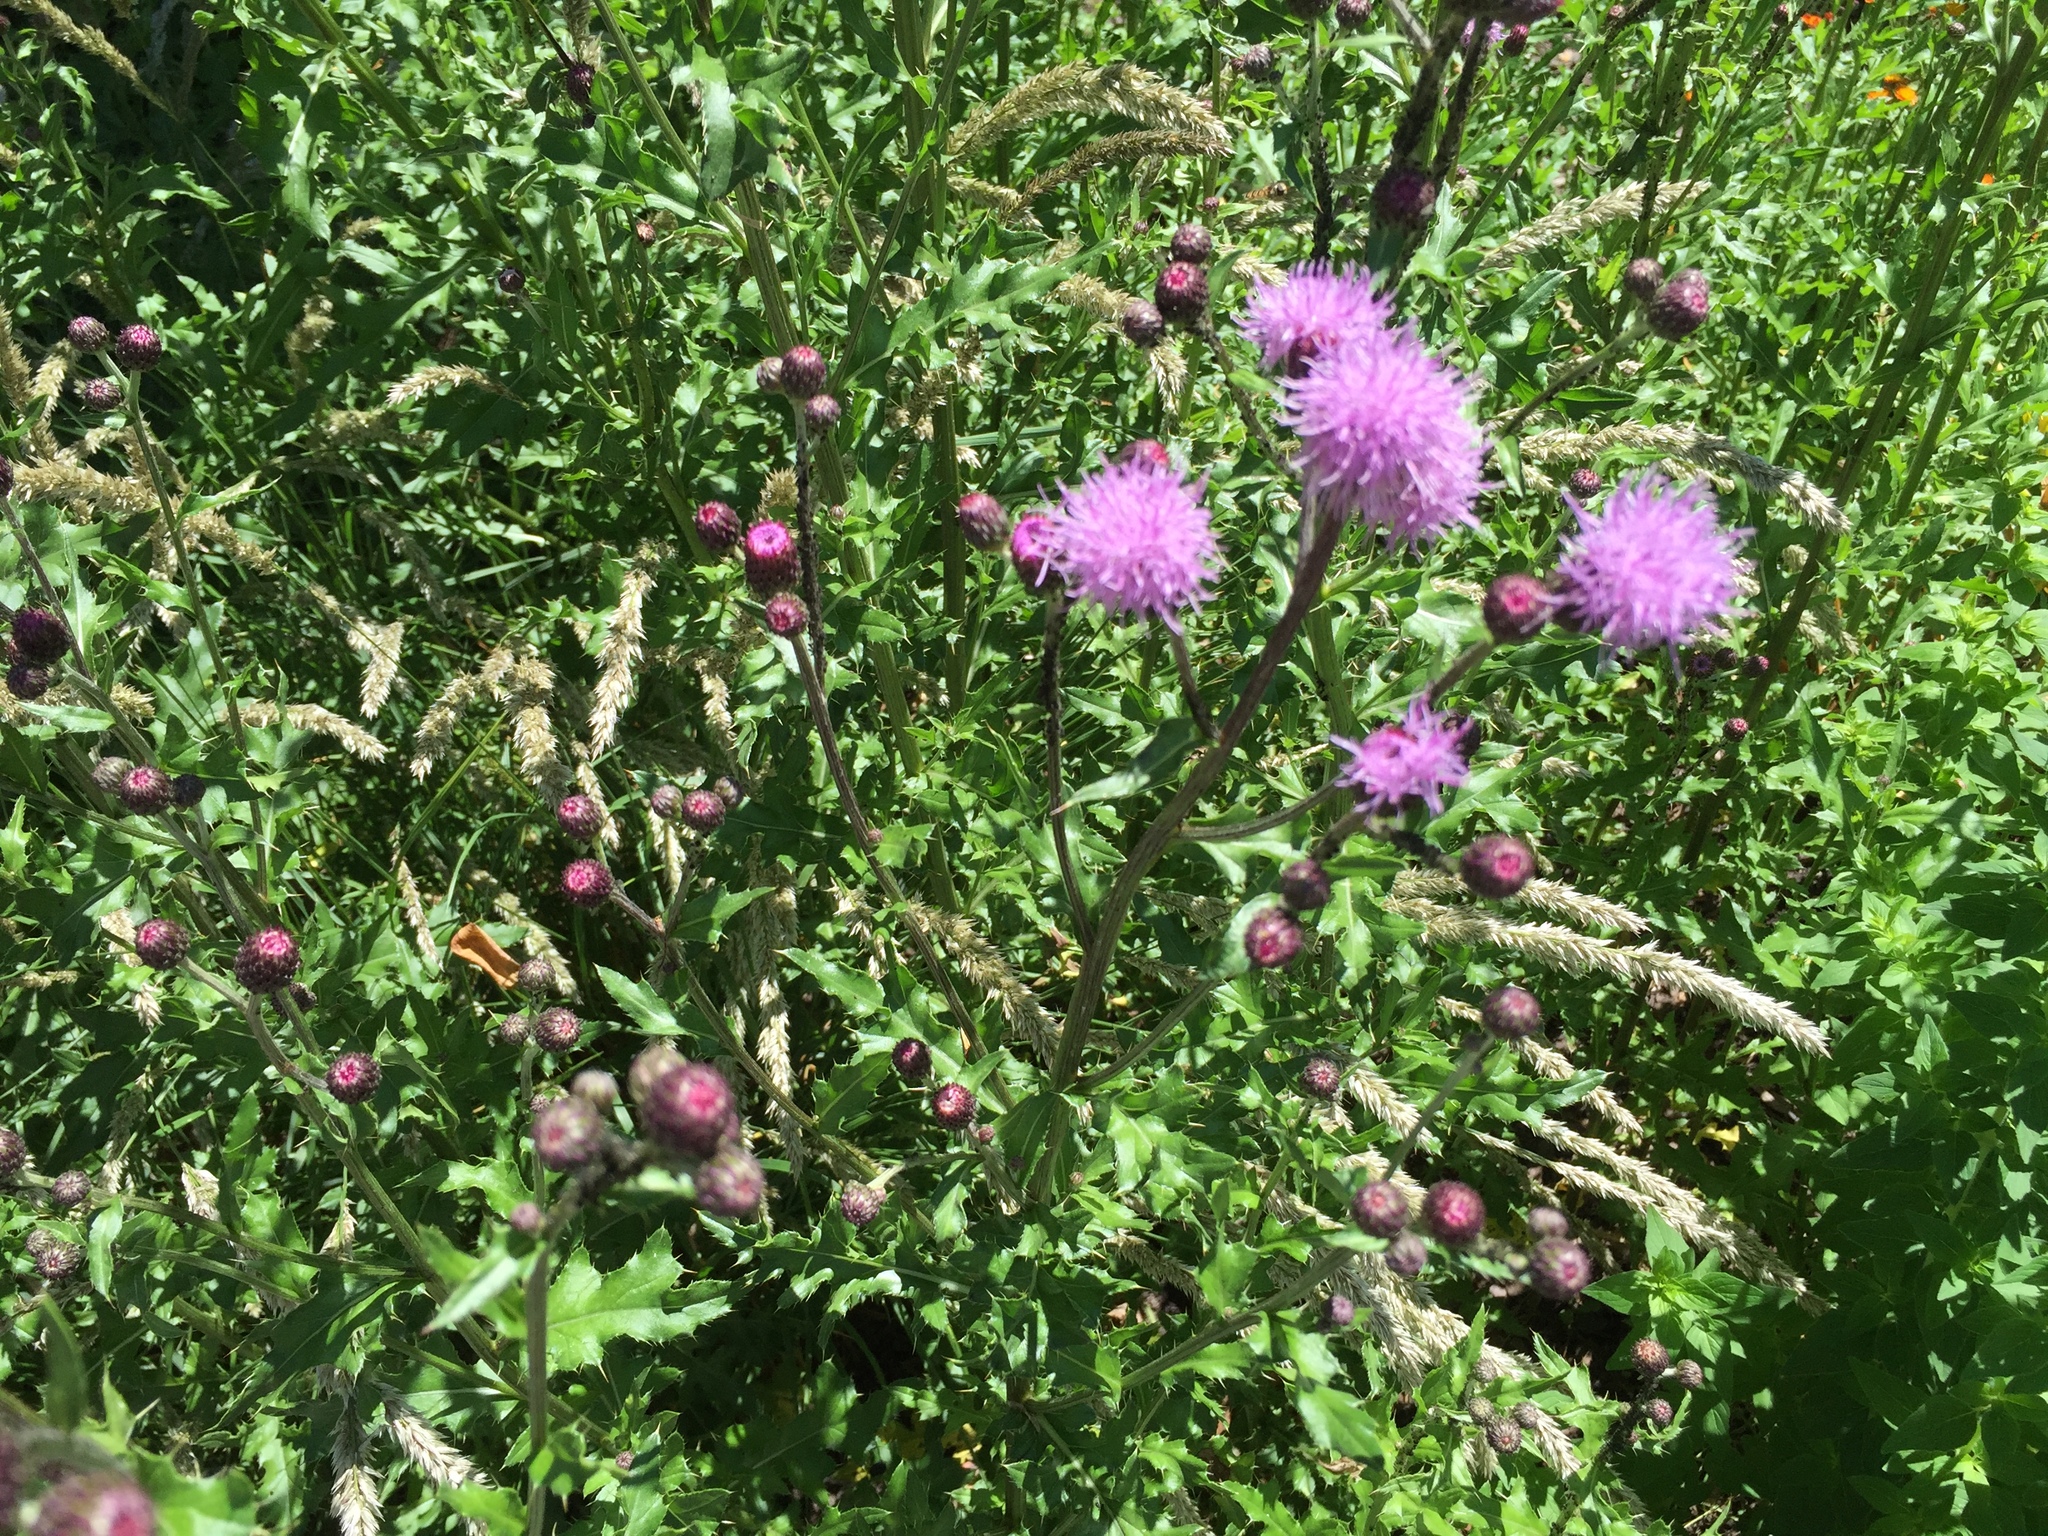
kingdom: Plantae
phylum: Tracheophyta
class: Magnoliopsida
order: Asterales
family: Asteraceae
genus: Cirsium
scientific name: Cirsium arvense
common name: Creeping thistle
